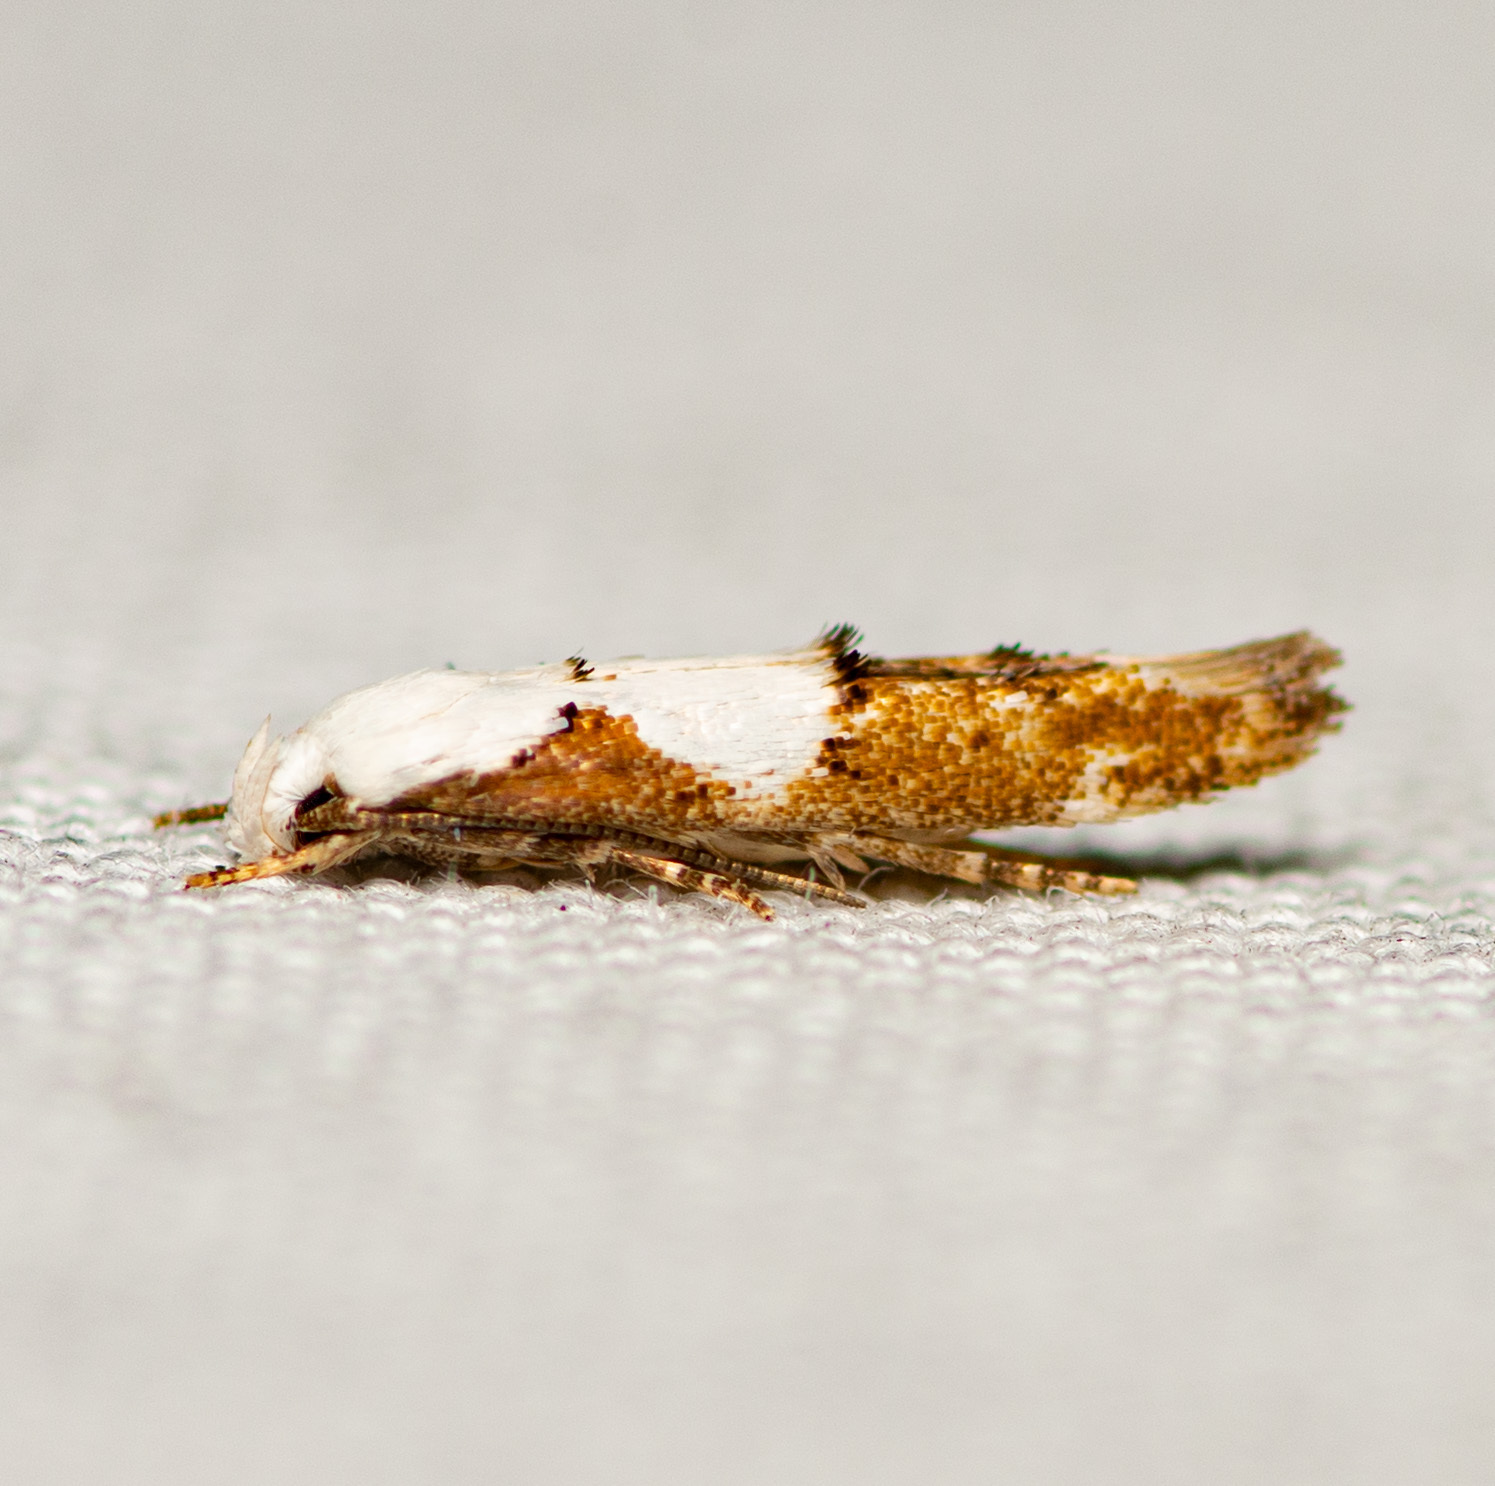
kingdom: Animalia
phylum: Arthropoda
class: Insecta
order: Lepidoptera
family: Momphidae
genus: Mompha
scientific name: Mompha circumscriptella
